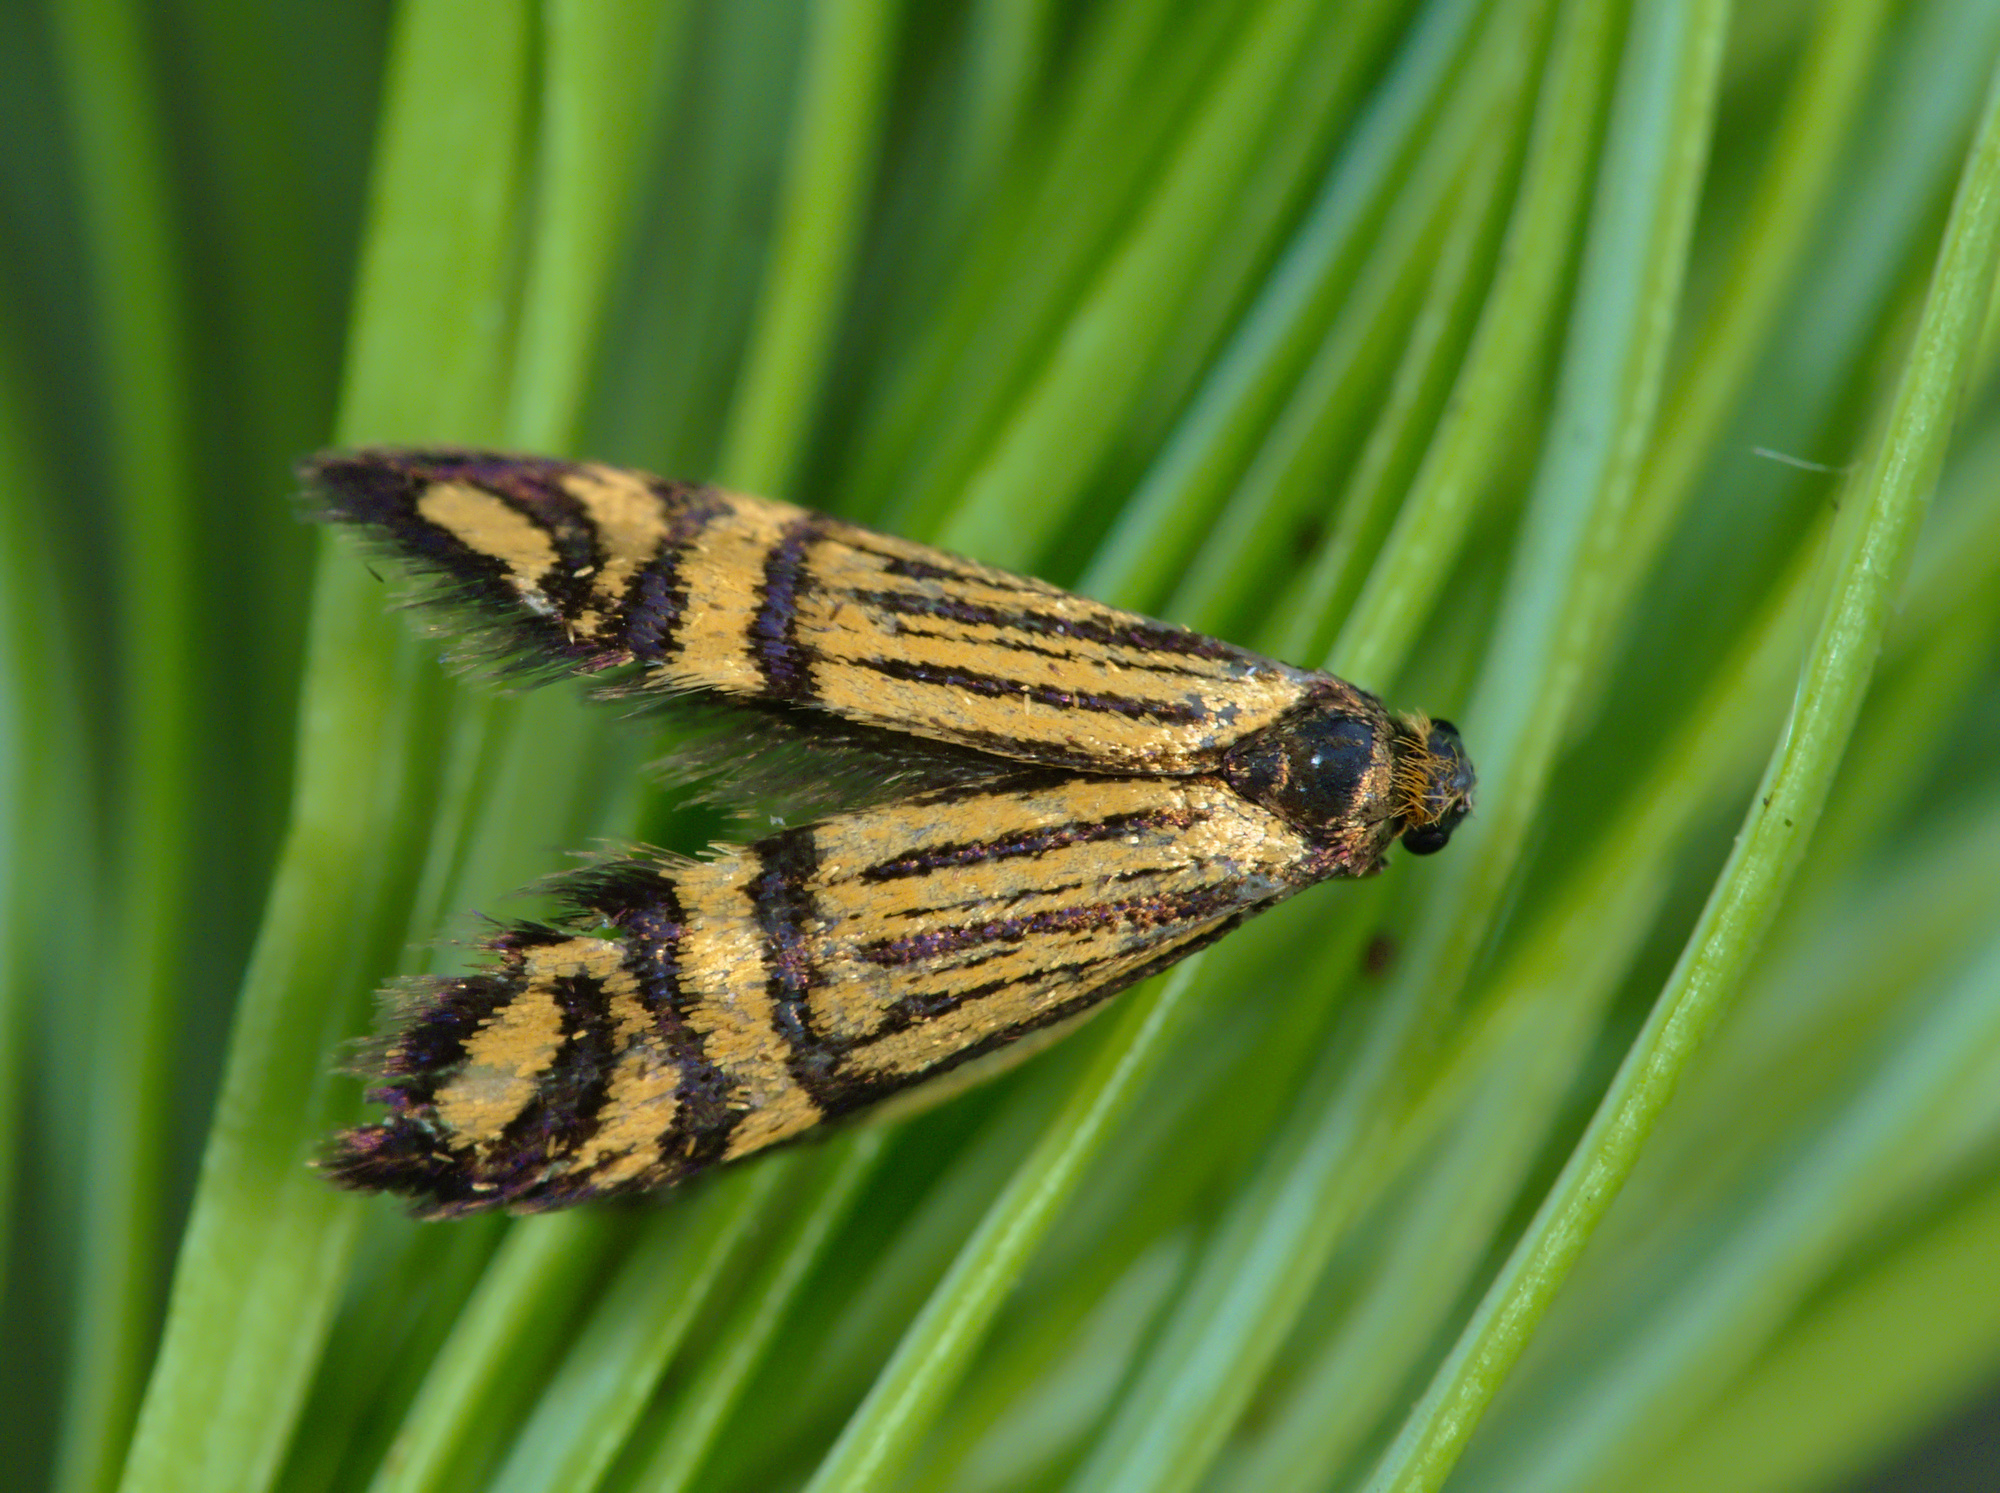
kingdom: Animalia
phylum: Arthropoda
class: Insecta
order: Lepidoptera
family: Adelidae
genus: Nemophora
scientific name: Nemophora ochsenheimerella
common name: Ochsenheimer’s long-horn
